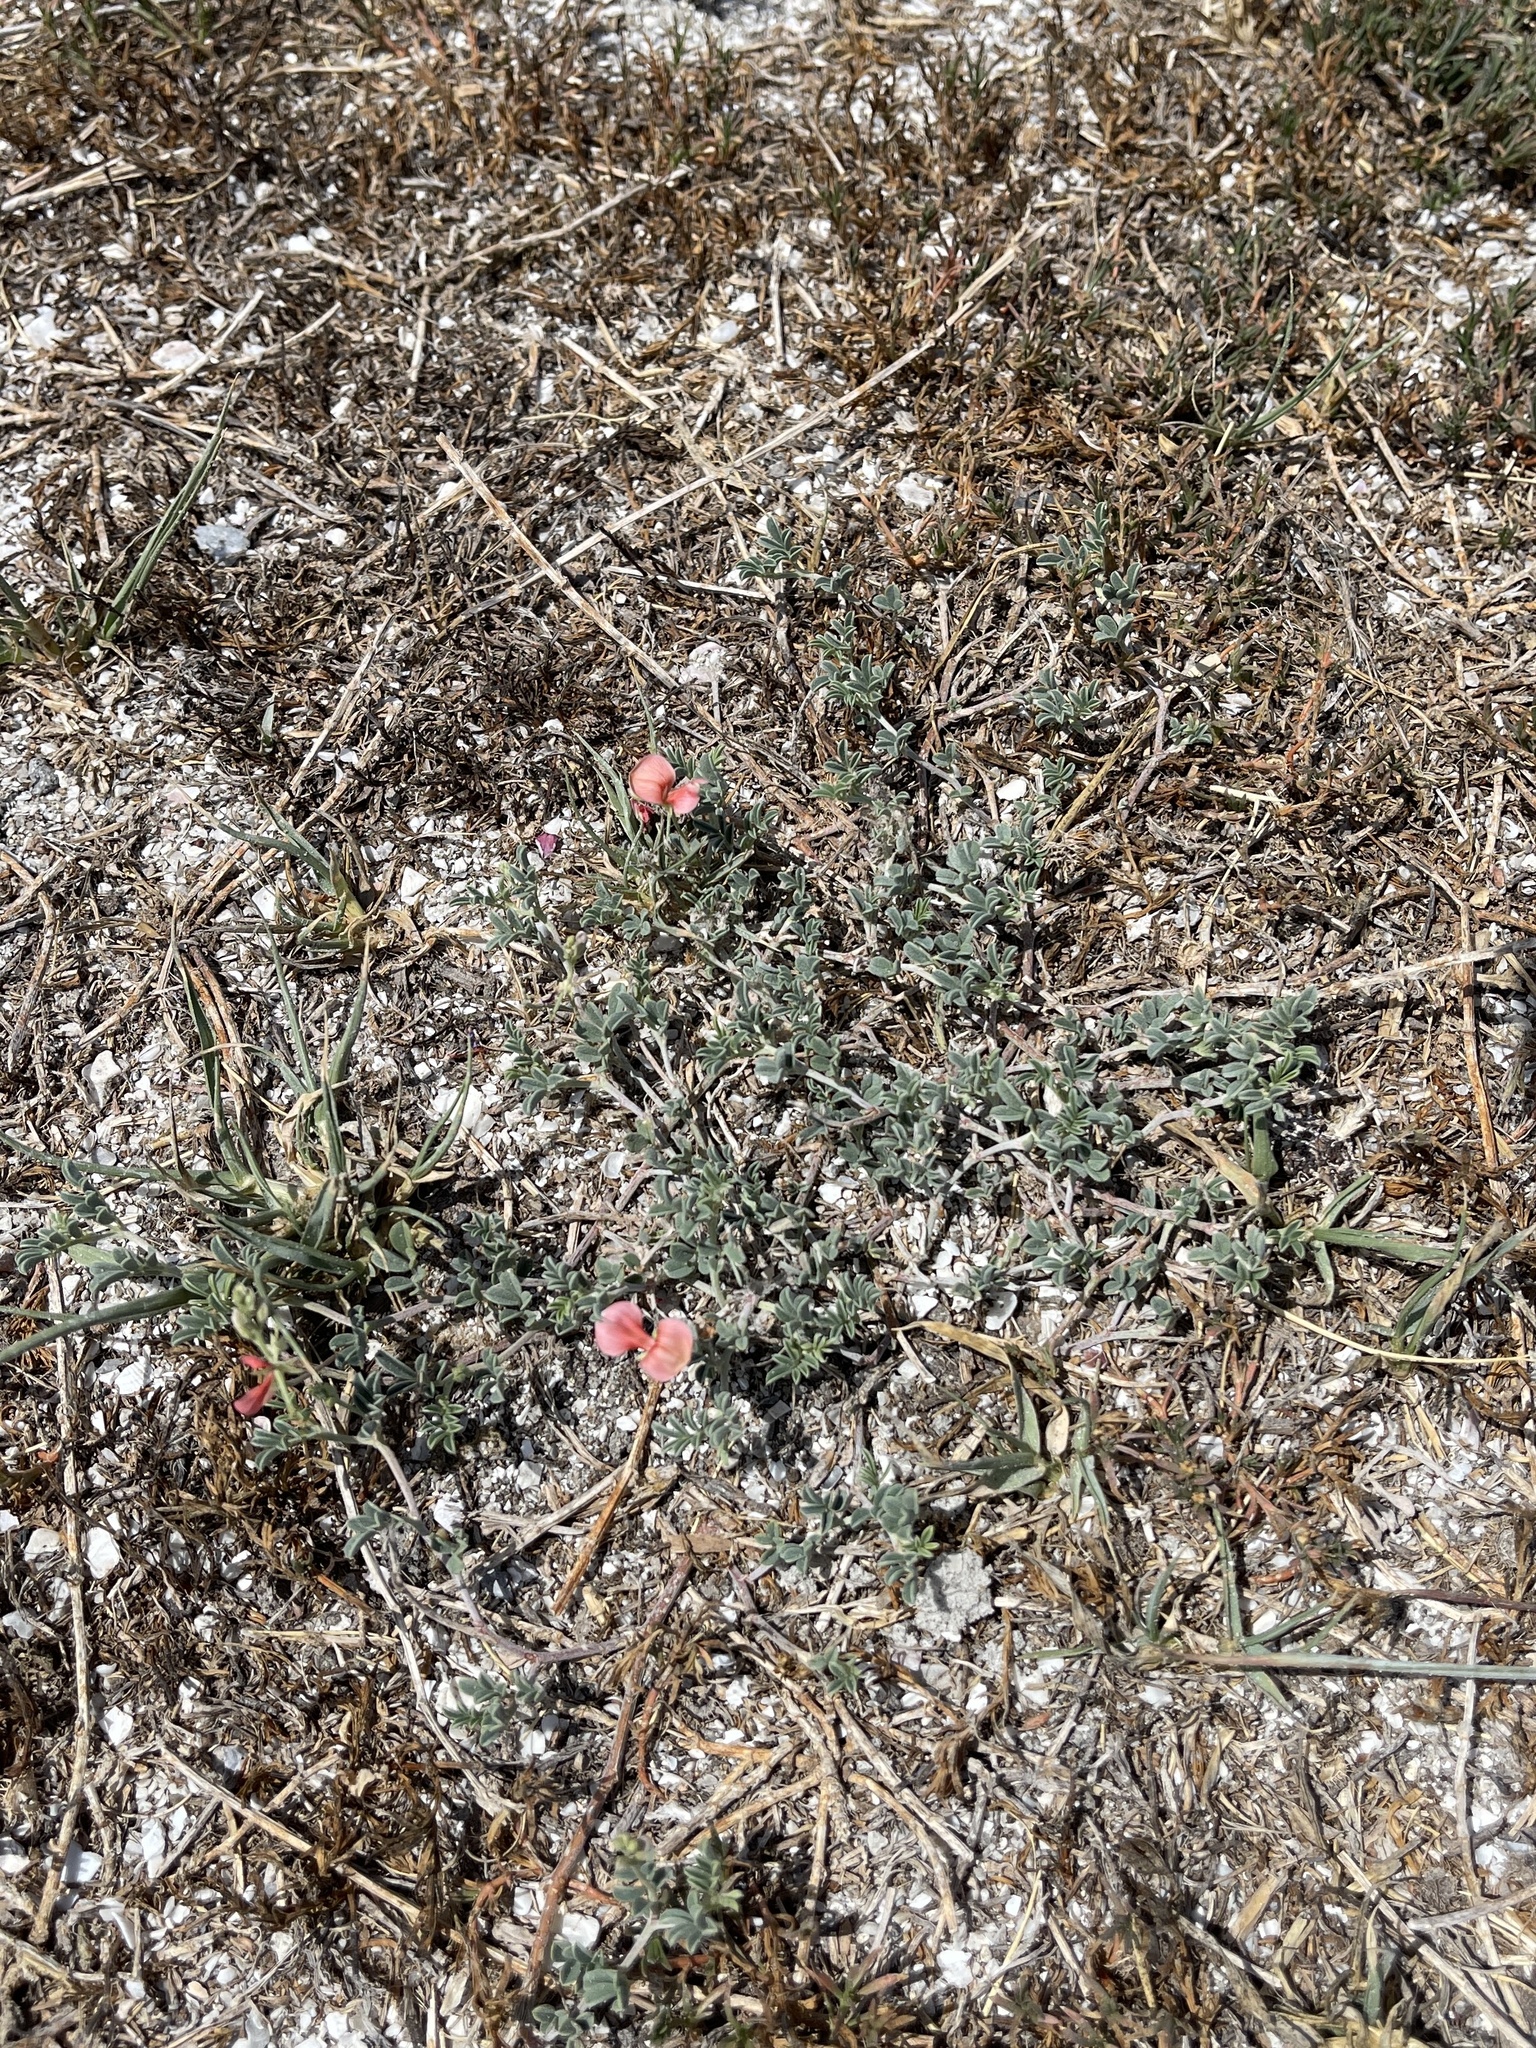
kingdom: Plantae
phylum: Tracheophyta
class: Magnoliopsida
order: Fabales
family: Fabaceae
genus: Indigofera
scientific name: Indigofera miniata
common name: Coast indigo
